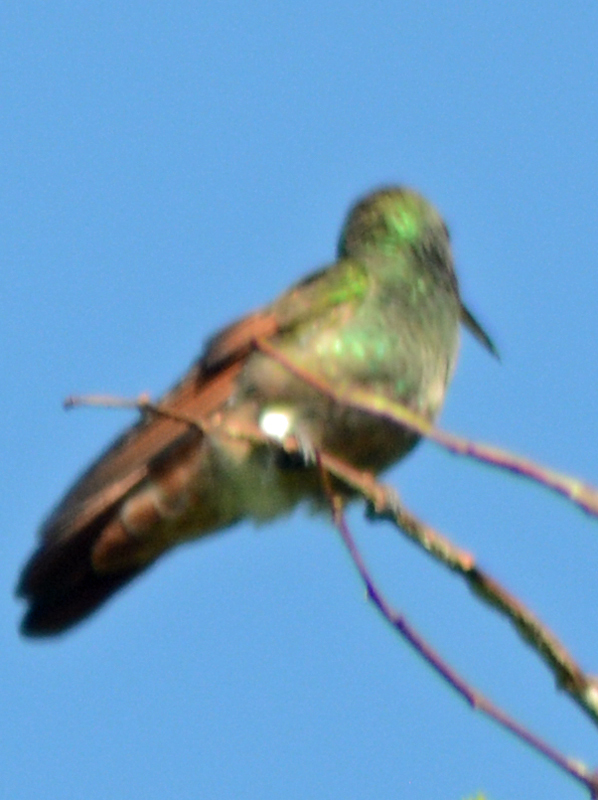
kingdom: Animalia
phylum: Chordata
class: Aves
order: Apodiformes
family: Trochilidae
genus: Saucerottia
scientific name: Saucerottia beryllina
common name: Berylline hummingbird
